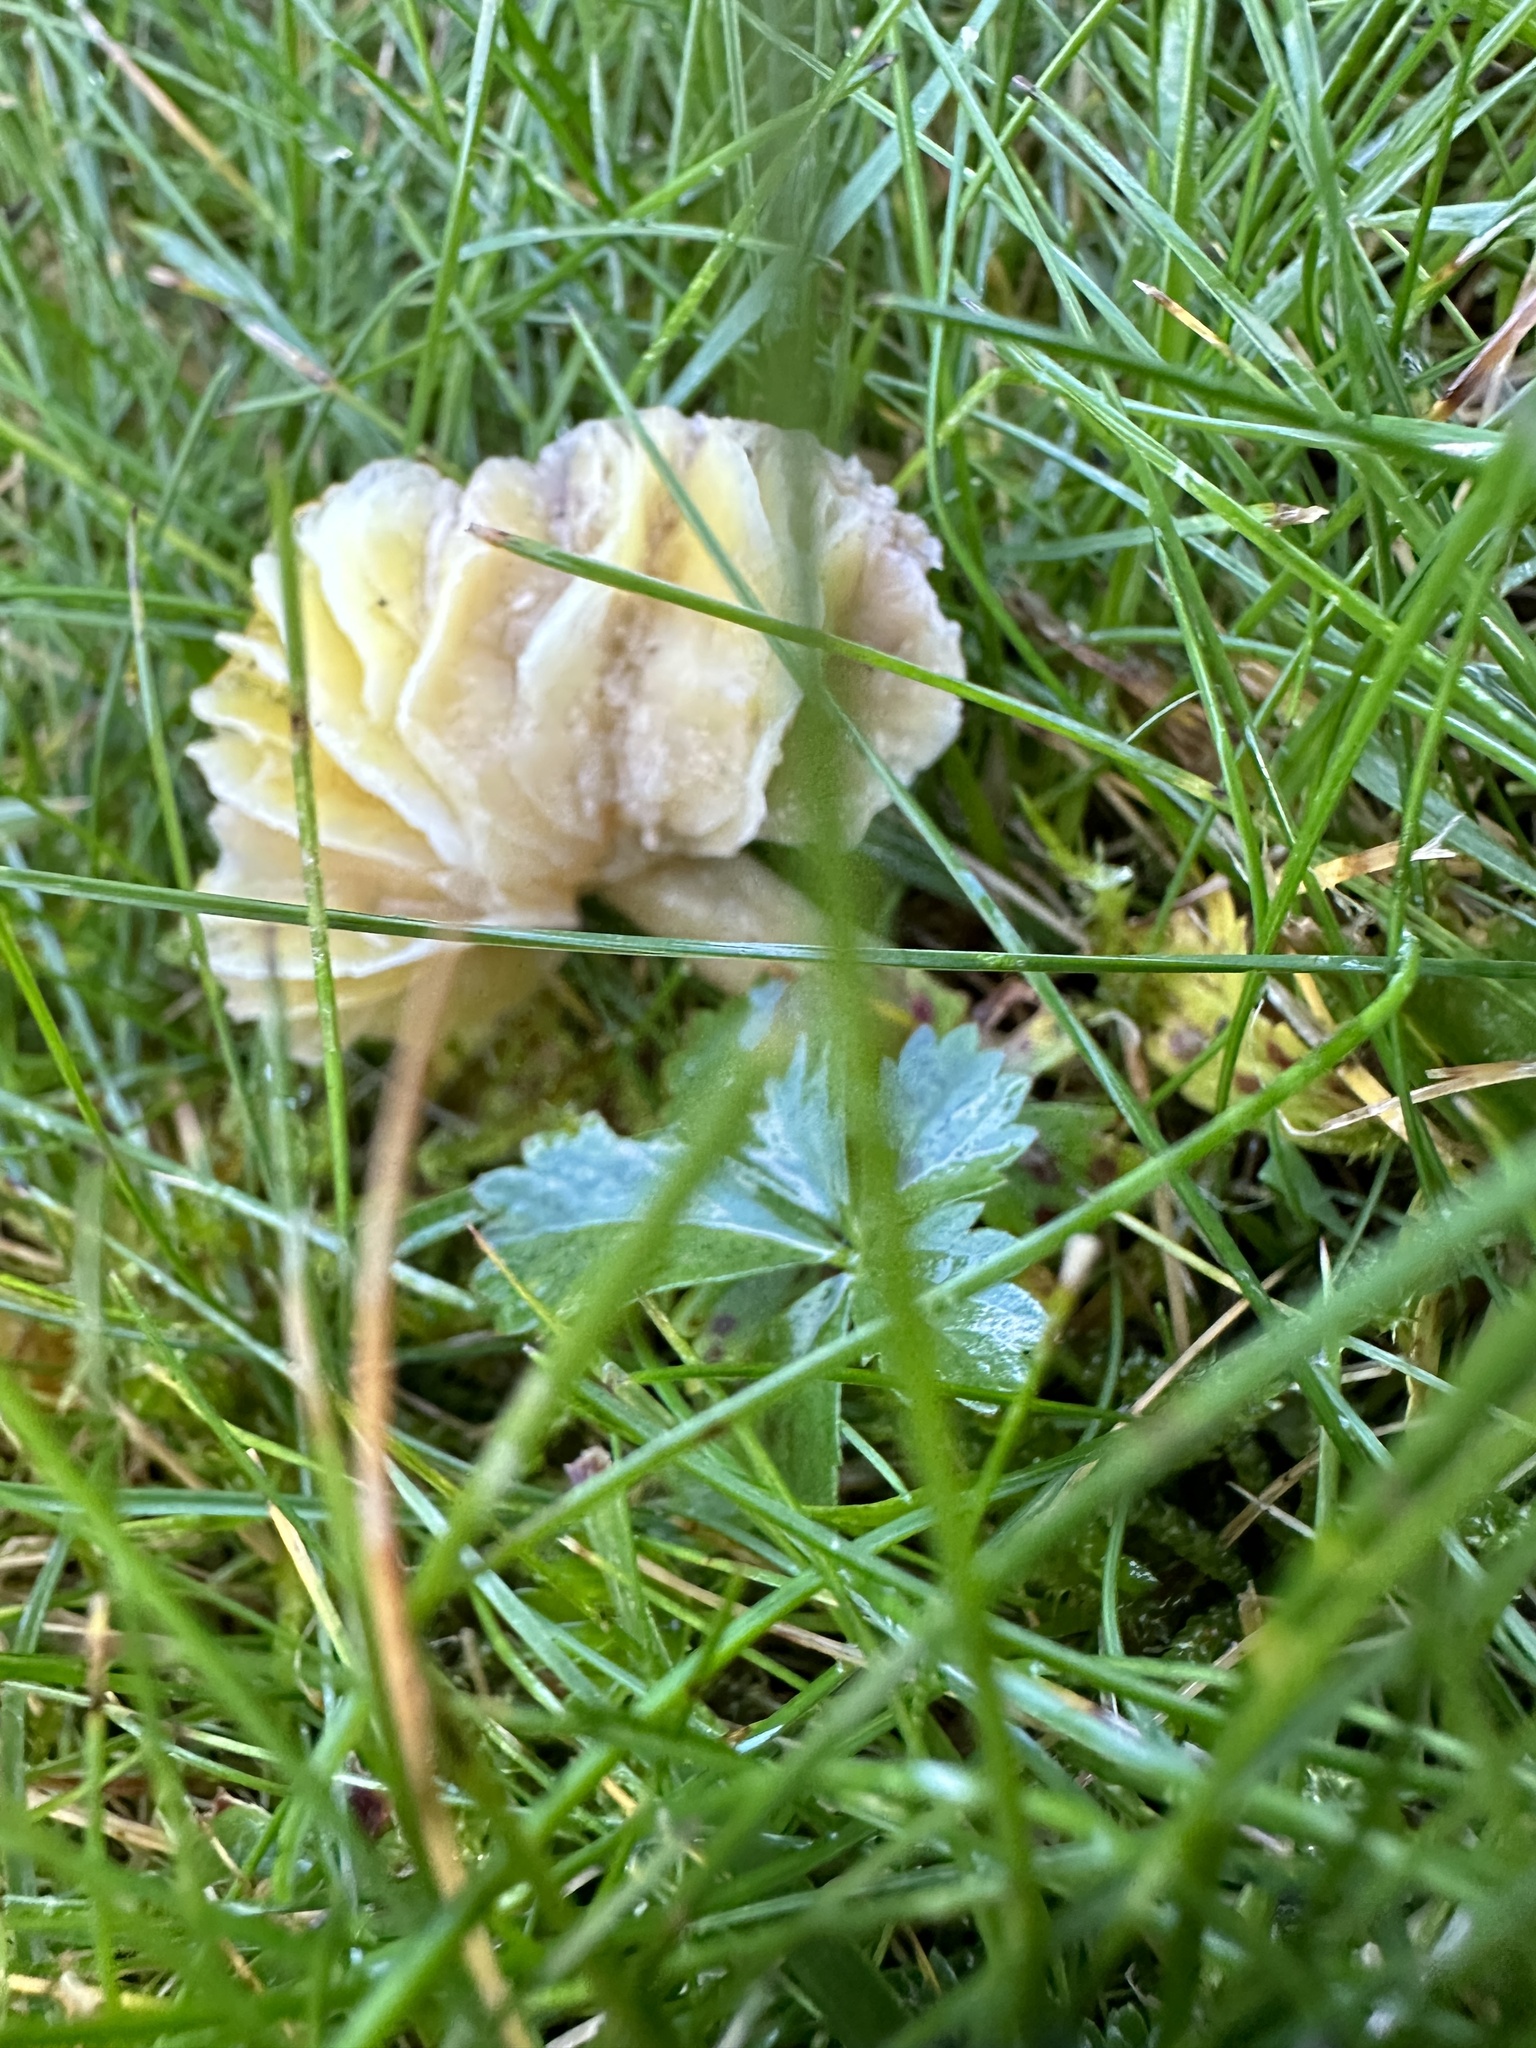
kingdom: Fungi
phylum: Basidiomycota
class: Agaricomycetes
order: Agaricales
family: Hygrophoraceae
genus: Hygrocybe
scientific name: Hygrocybe chlorophana
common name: Golden waxcap
